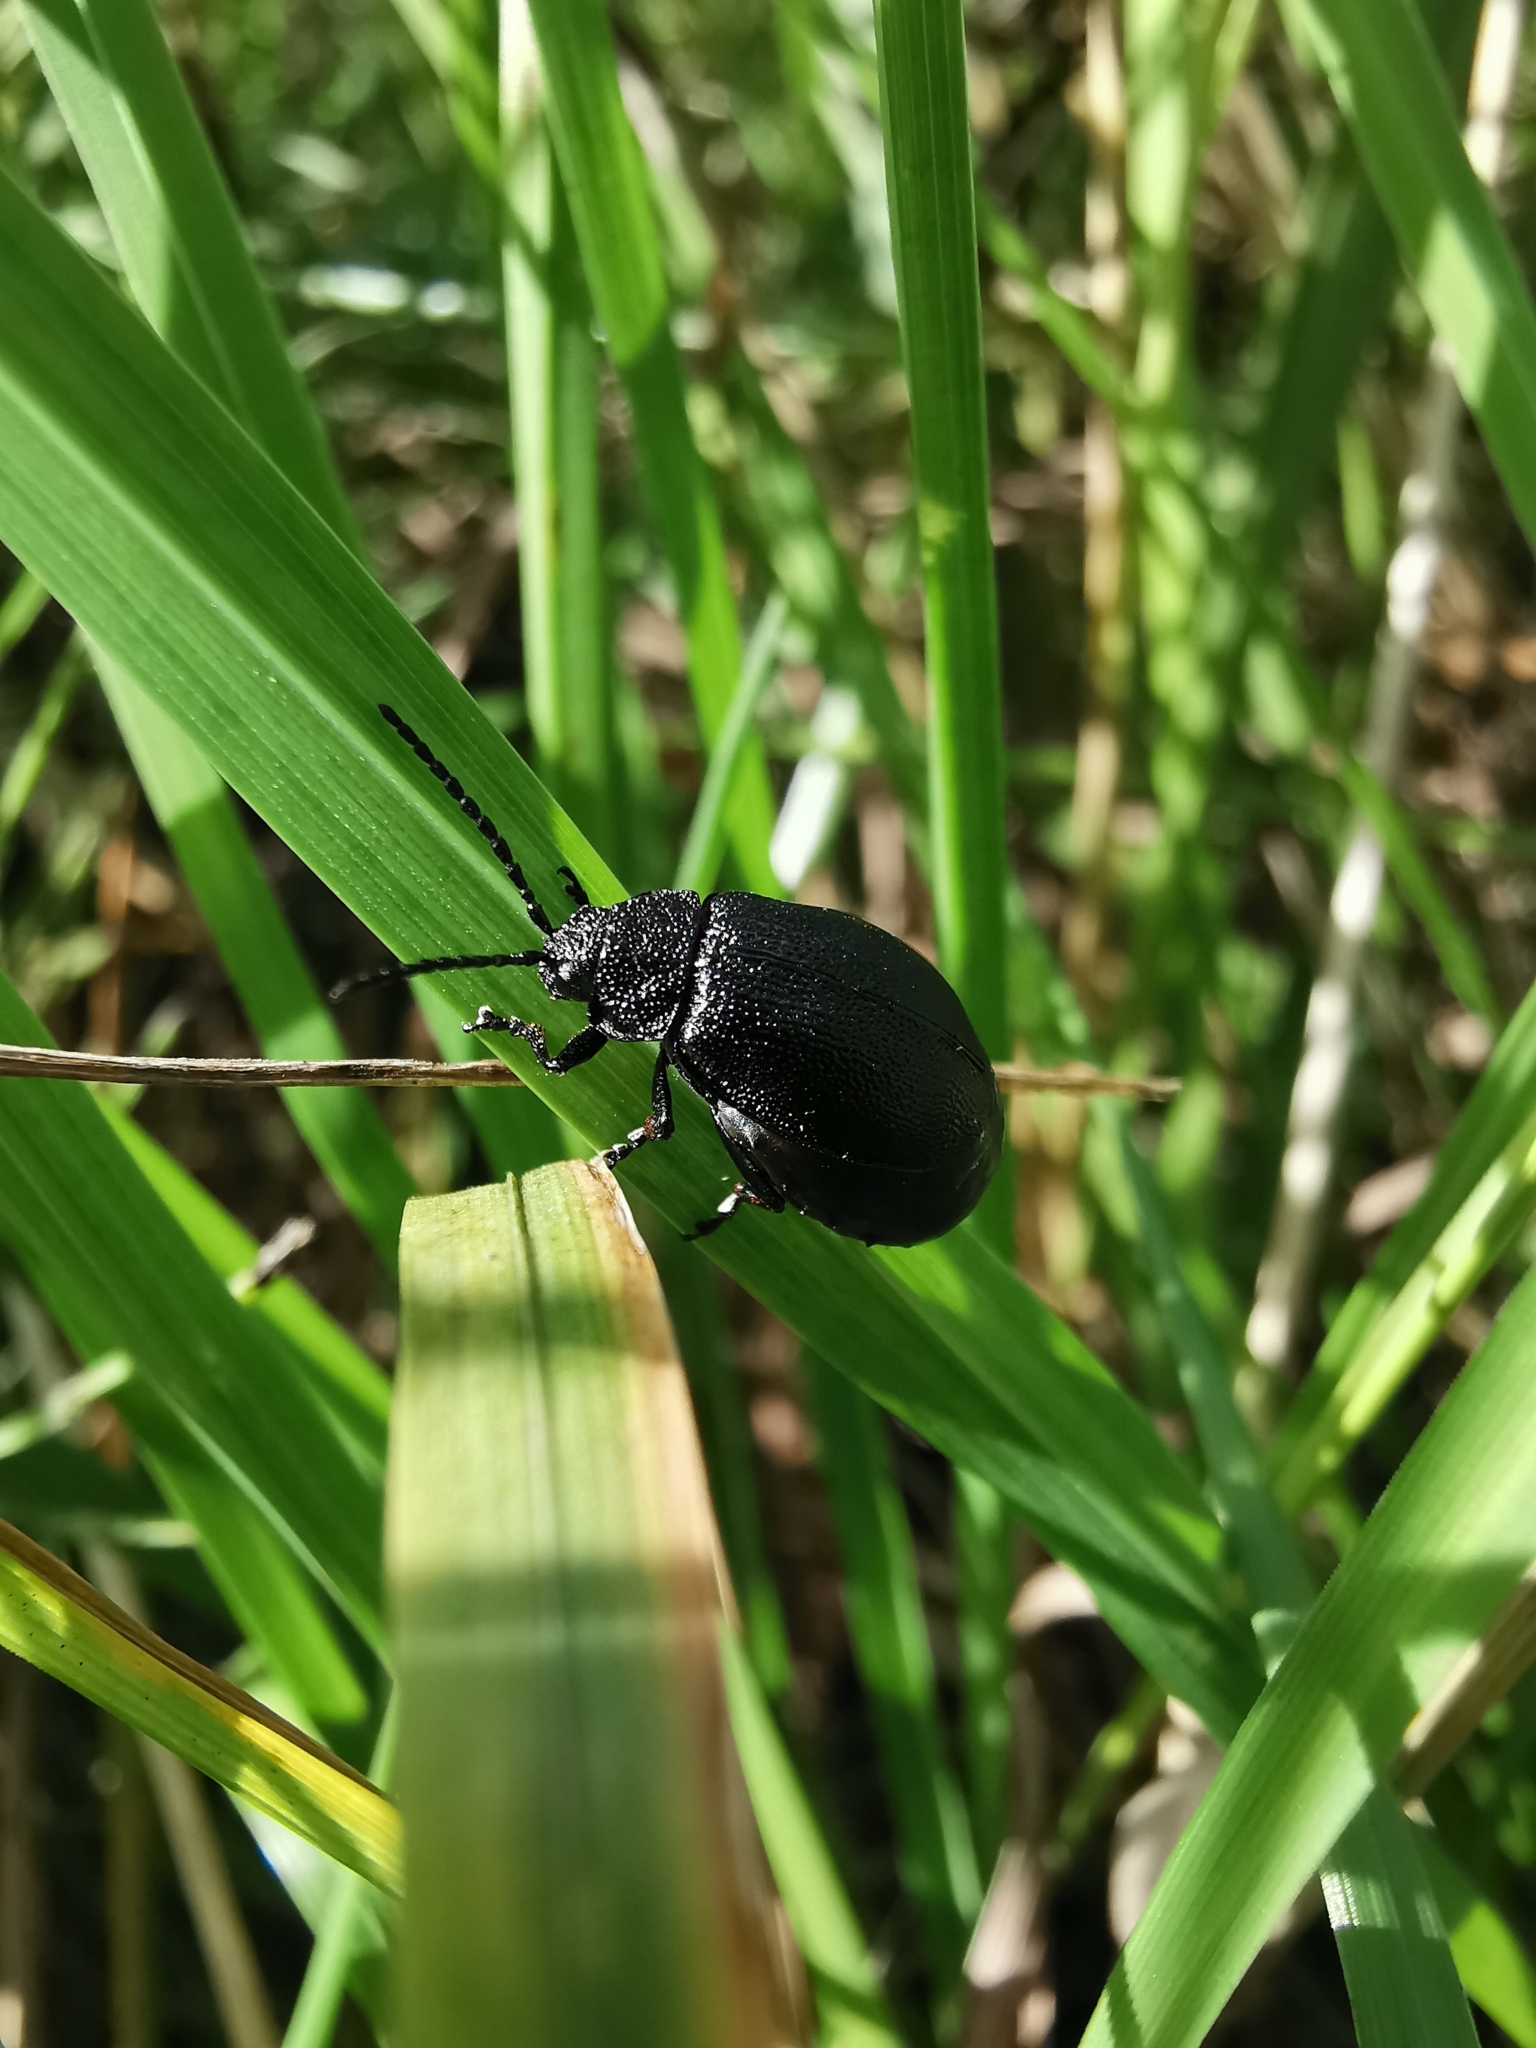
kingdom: Animalia
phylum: Arthropoda
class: Insecta
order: Coleoptera
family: Chrysomelidae
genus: Galeruca
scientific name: Galeruca tanaceti
